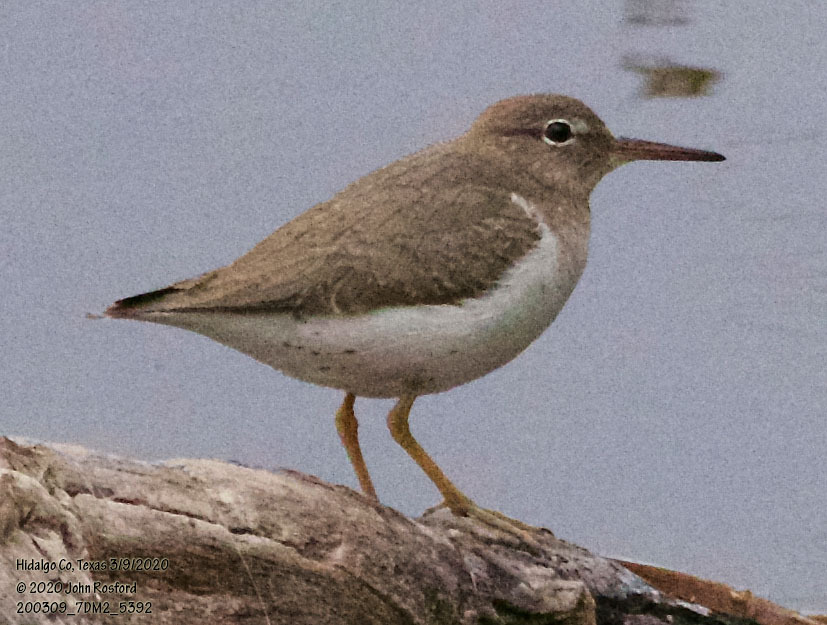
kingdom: Animalia
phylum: Chordata
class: Aves
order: Charadriiformes
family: Scolopacidae
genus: Actitis
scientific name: Actitis macularius
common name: Spotted sandpiper
